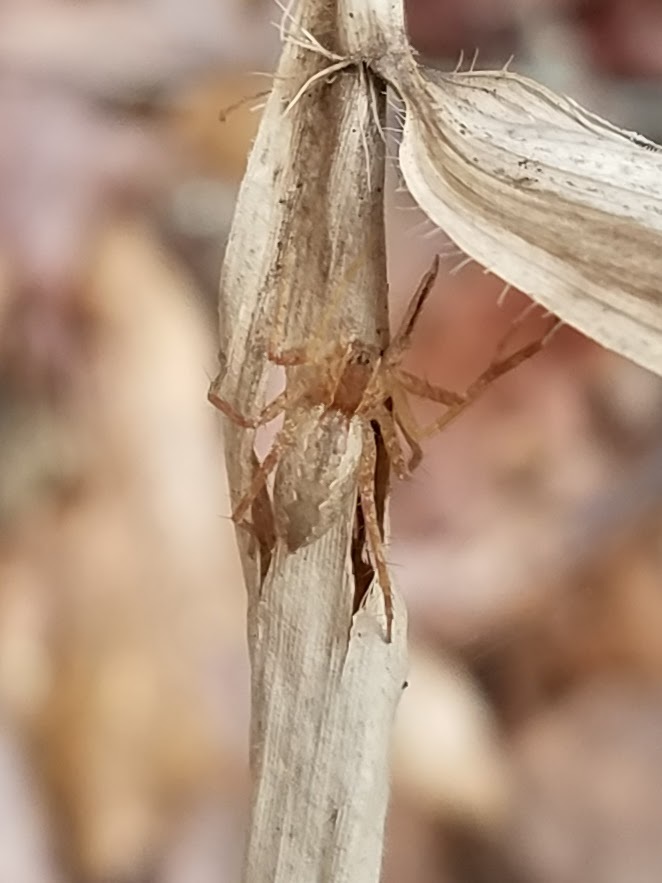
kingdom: Animalia
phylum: Arthropoda
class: Arachnida
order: Araneae
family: Pisauridae
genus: Pisaurina
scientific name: Pisaurina mira
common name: American nursery web spider
